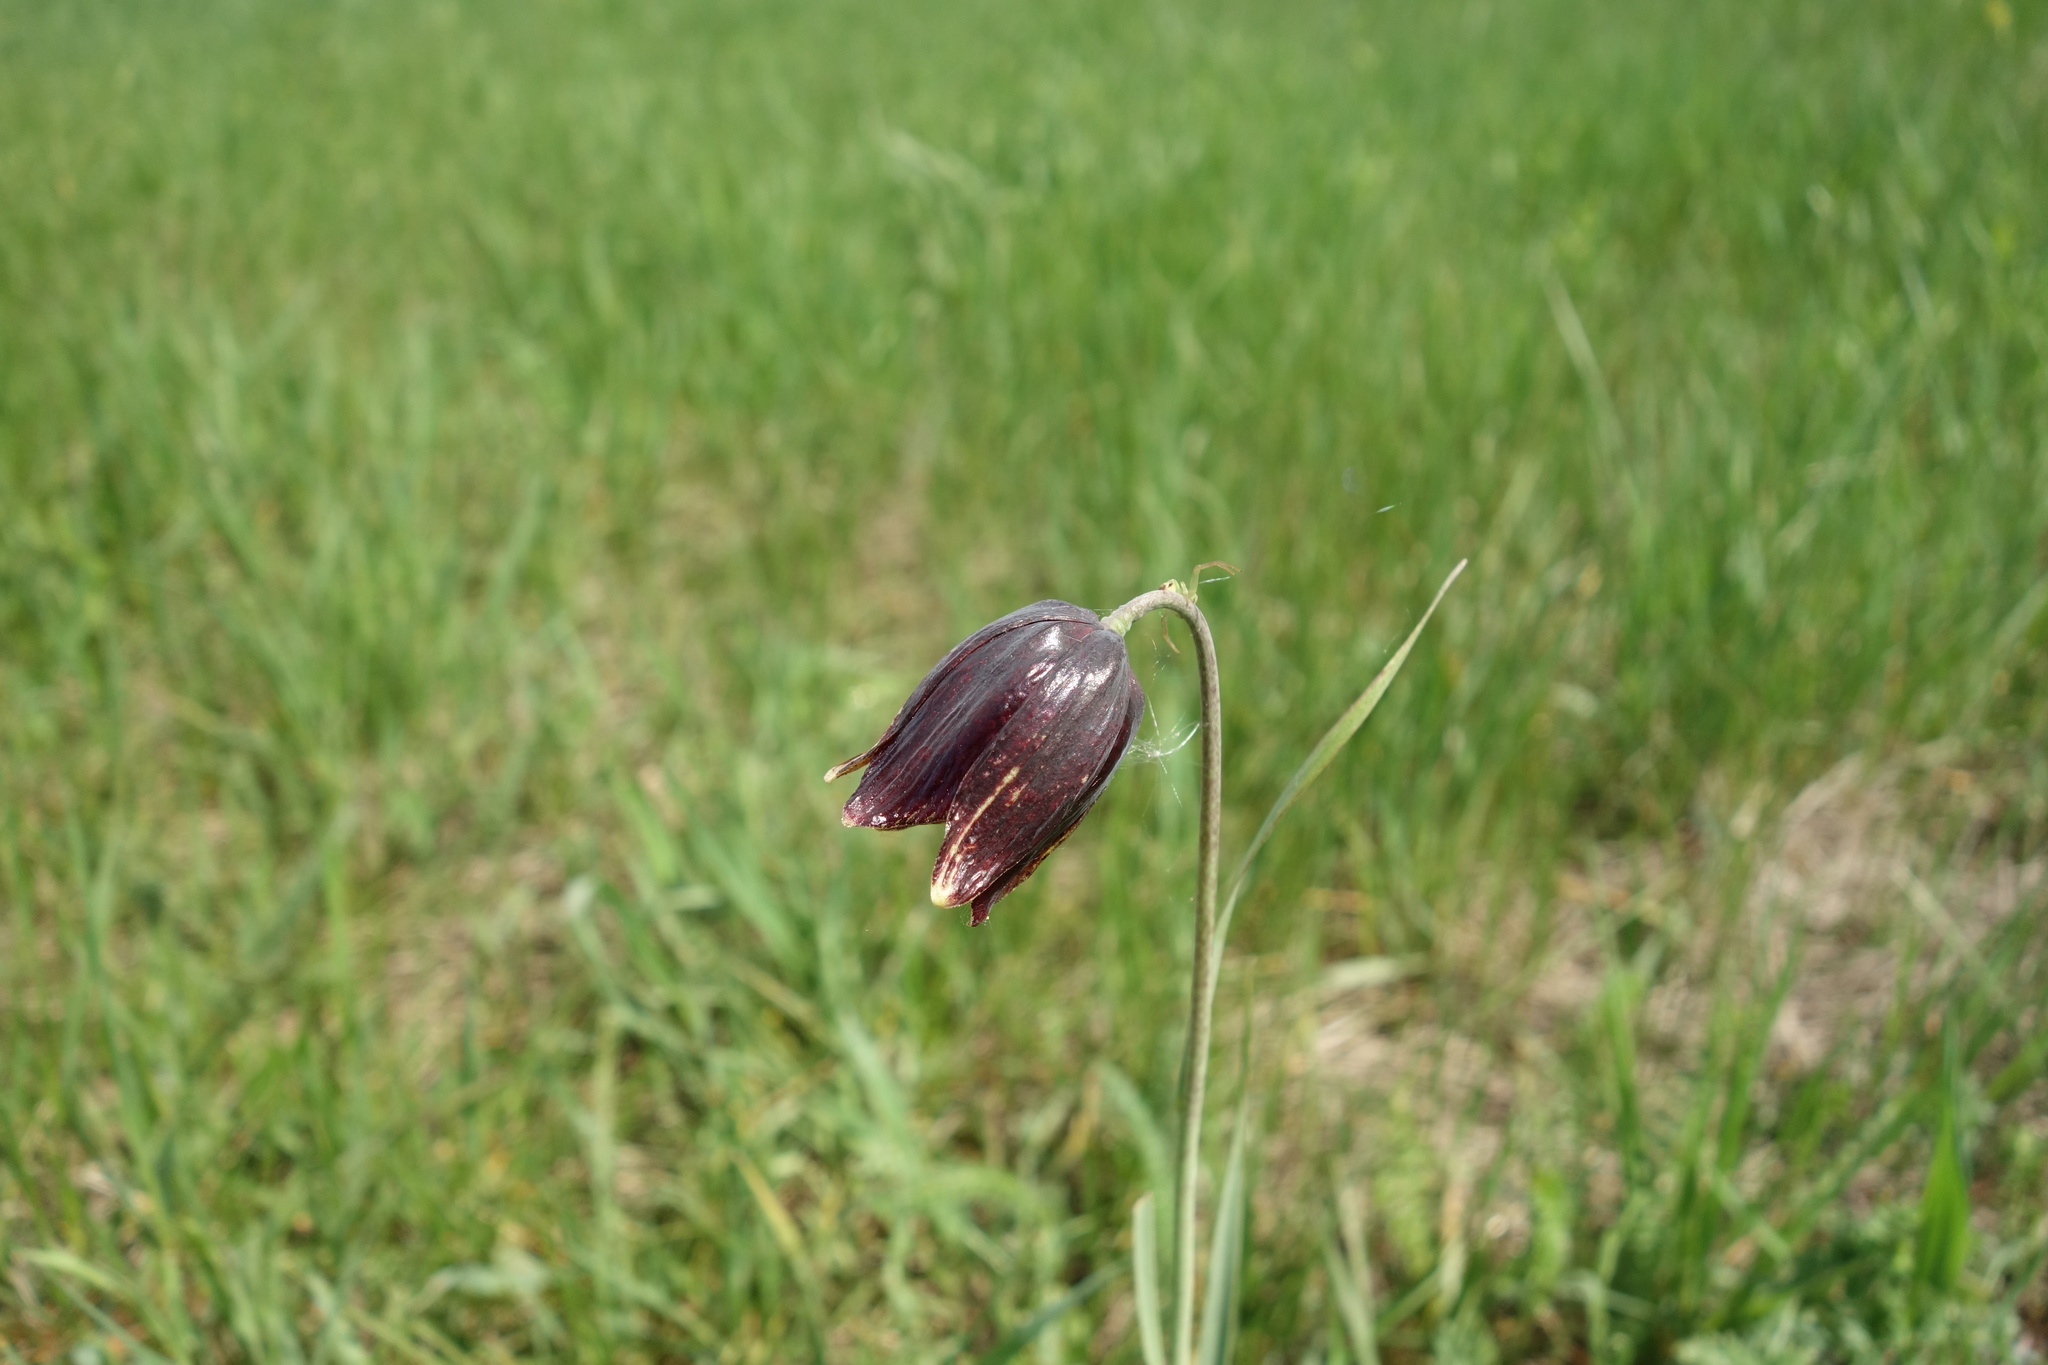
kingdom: Plantae
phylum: Tracheophyta
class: Liliopsida
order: Liliales
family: Liliaceae
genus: Fritillaria
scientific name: Fritillaria meleagroides
